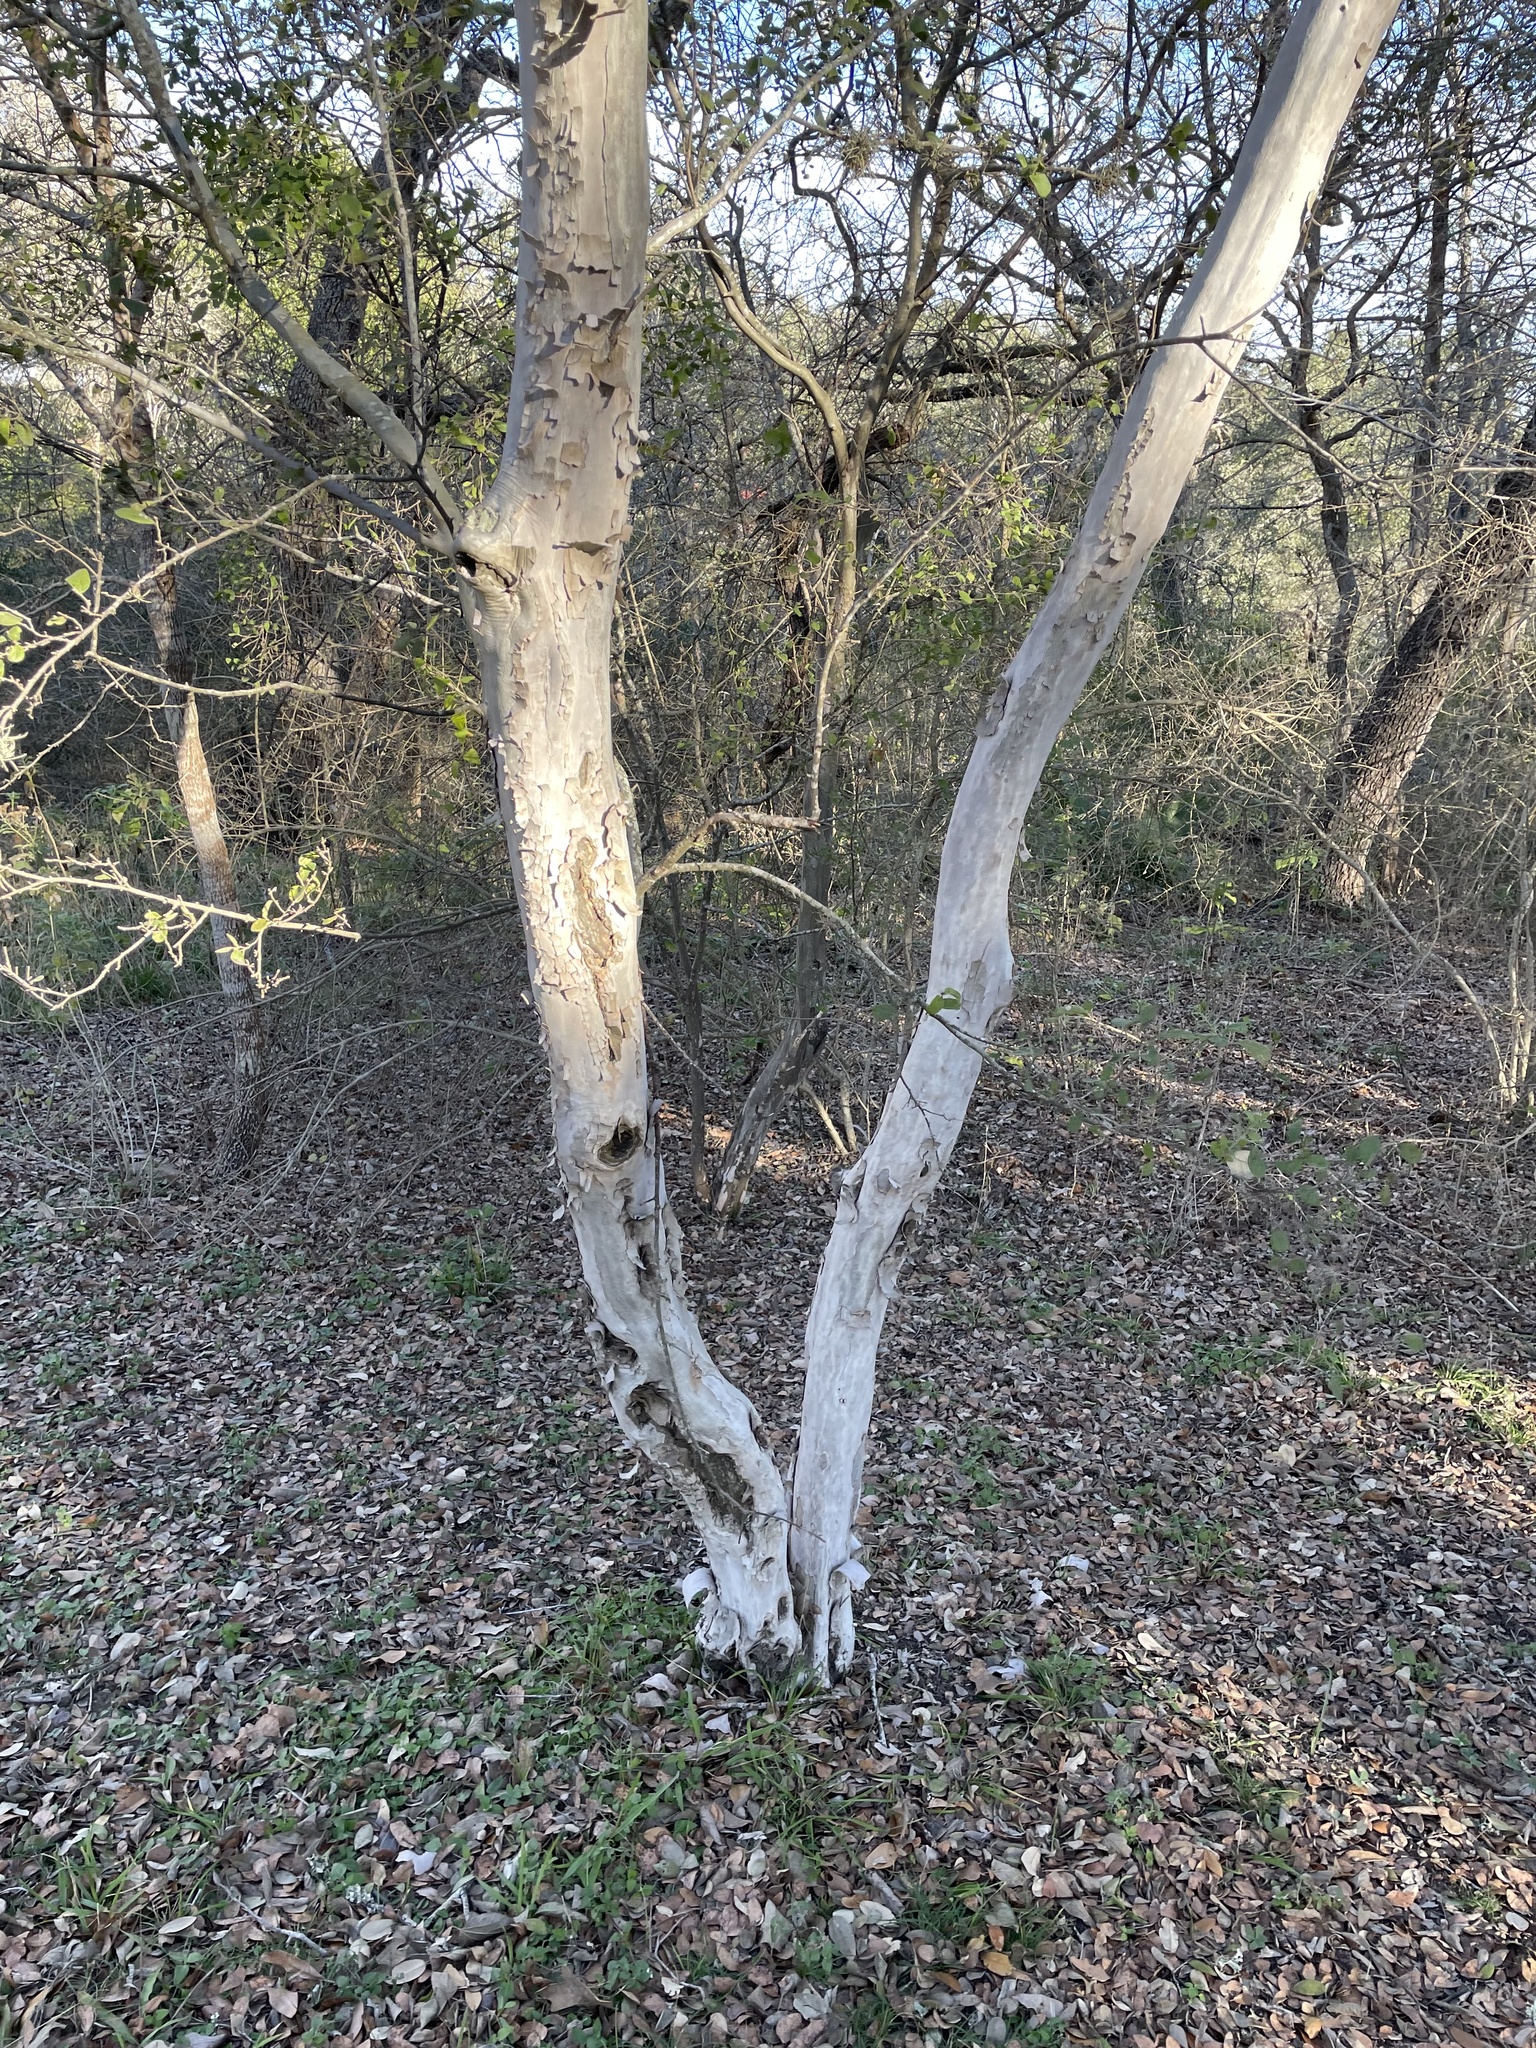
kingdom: Plantae
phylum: Tracheophyta
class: Magnoliopsida
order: Ericales
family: Ebenaceae
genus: Diospyros
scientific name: Diospyros texana
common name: Texas persimmon
